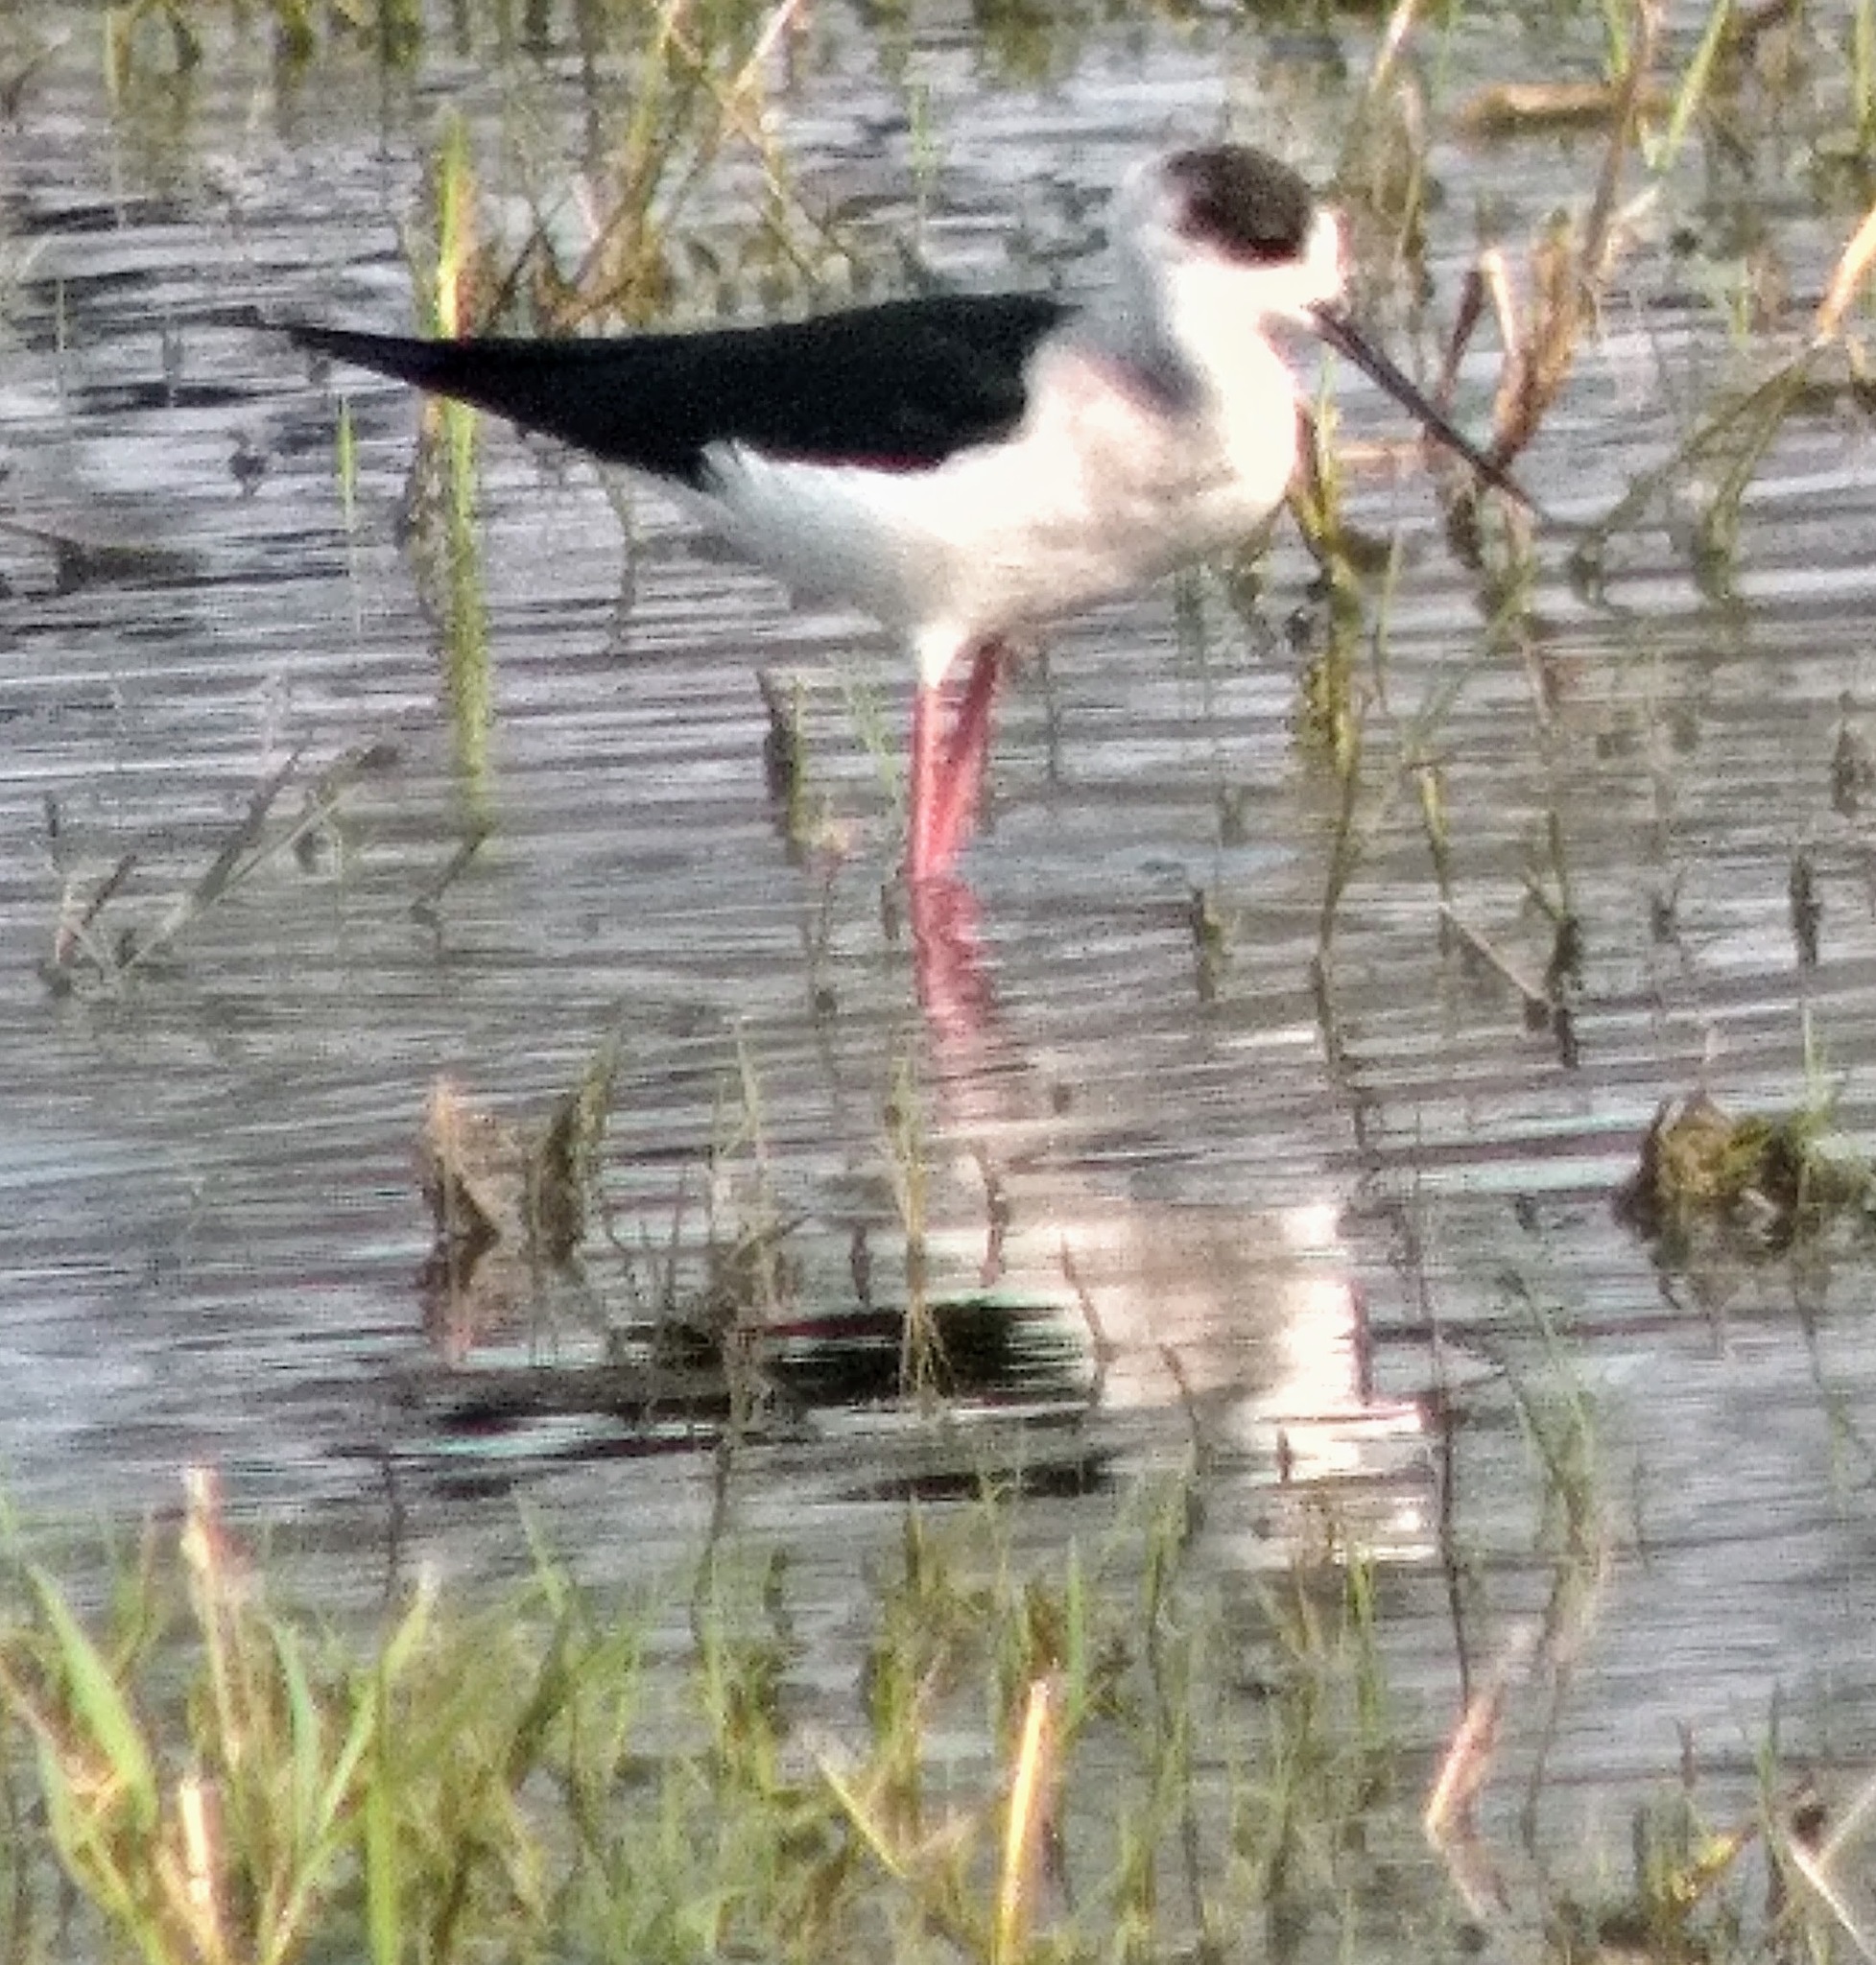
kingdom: Animalia
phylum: Chordata
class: Aves
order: Charadriiformes
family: Recurvirostridae
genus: Himantopus
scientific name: Himantopus himantopus
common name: Black-winged stilt
